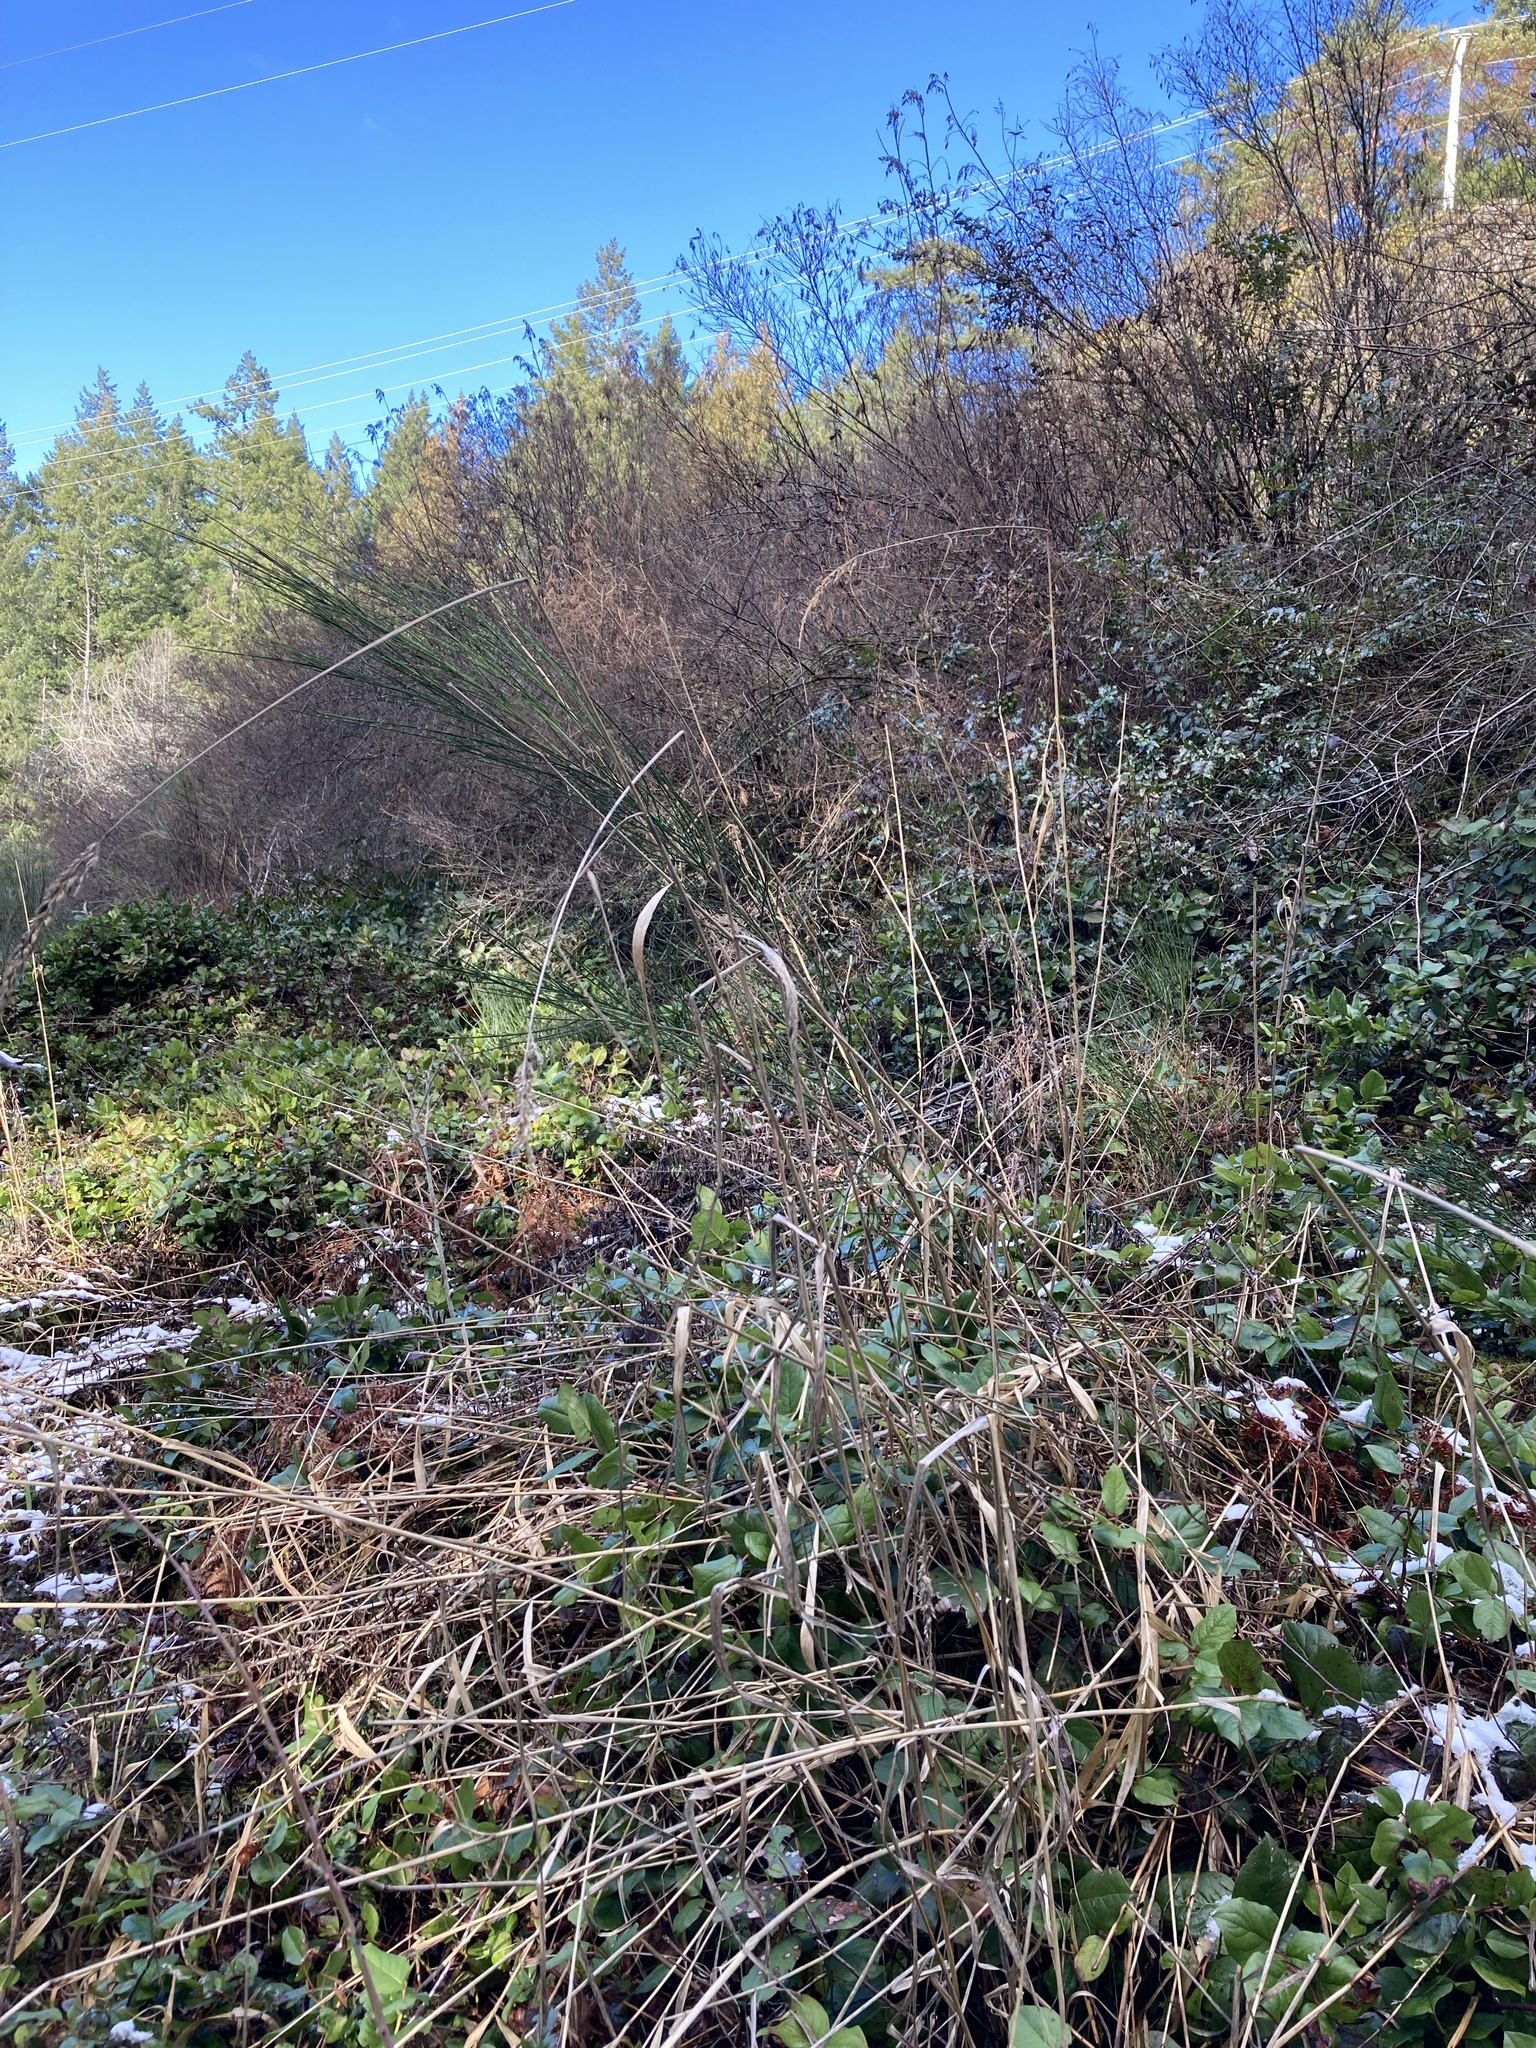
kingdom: Plantae
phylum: Tracheophyta
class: Liliopsida
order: Poales
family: Poaceae
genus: Dactylis
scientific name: Dactylis glomerata
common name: Orchardgrass
